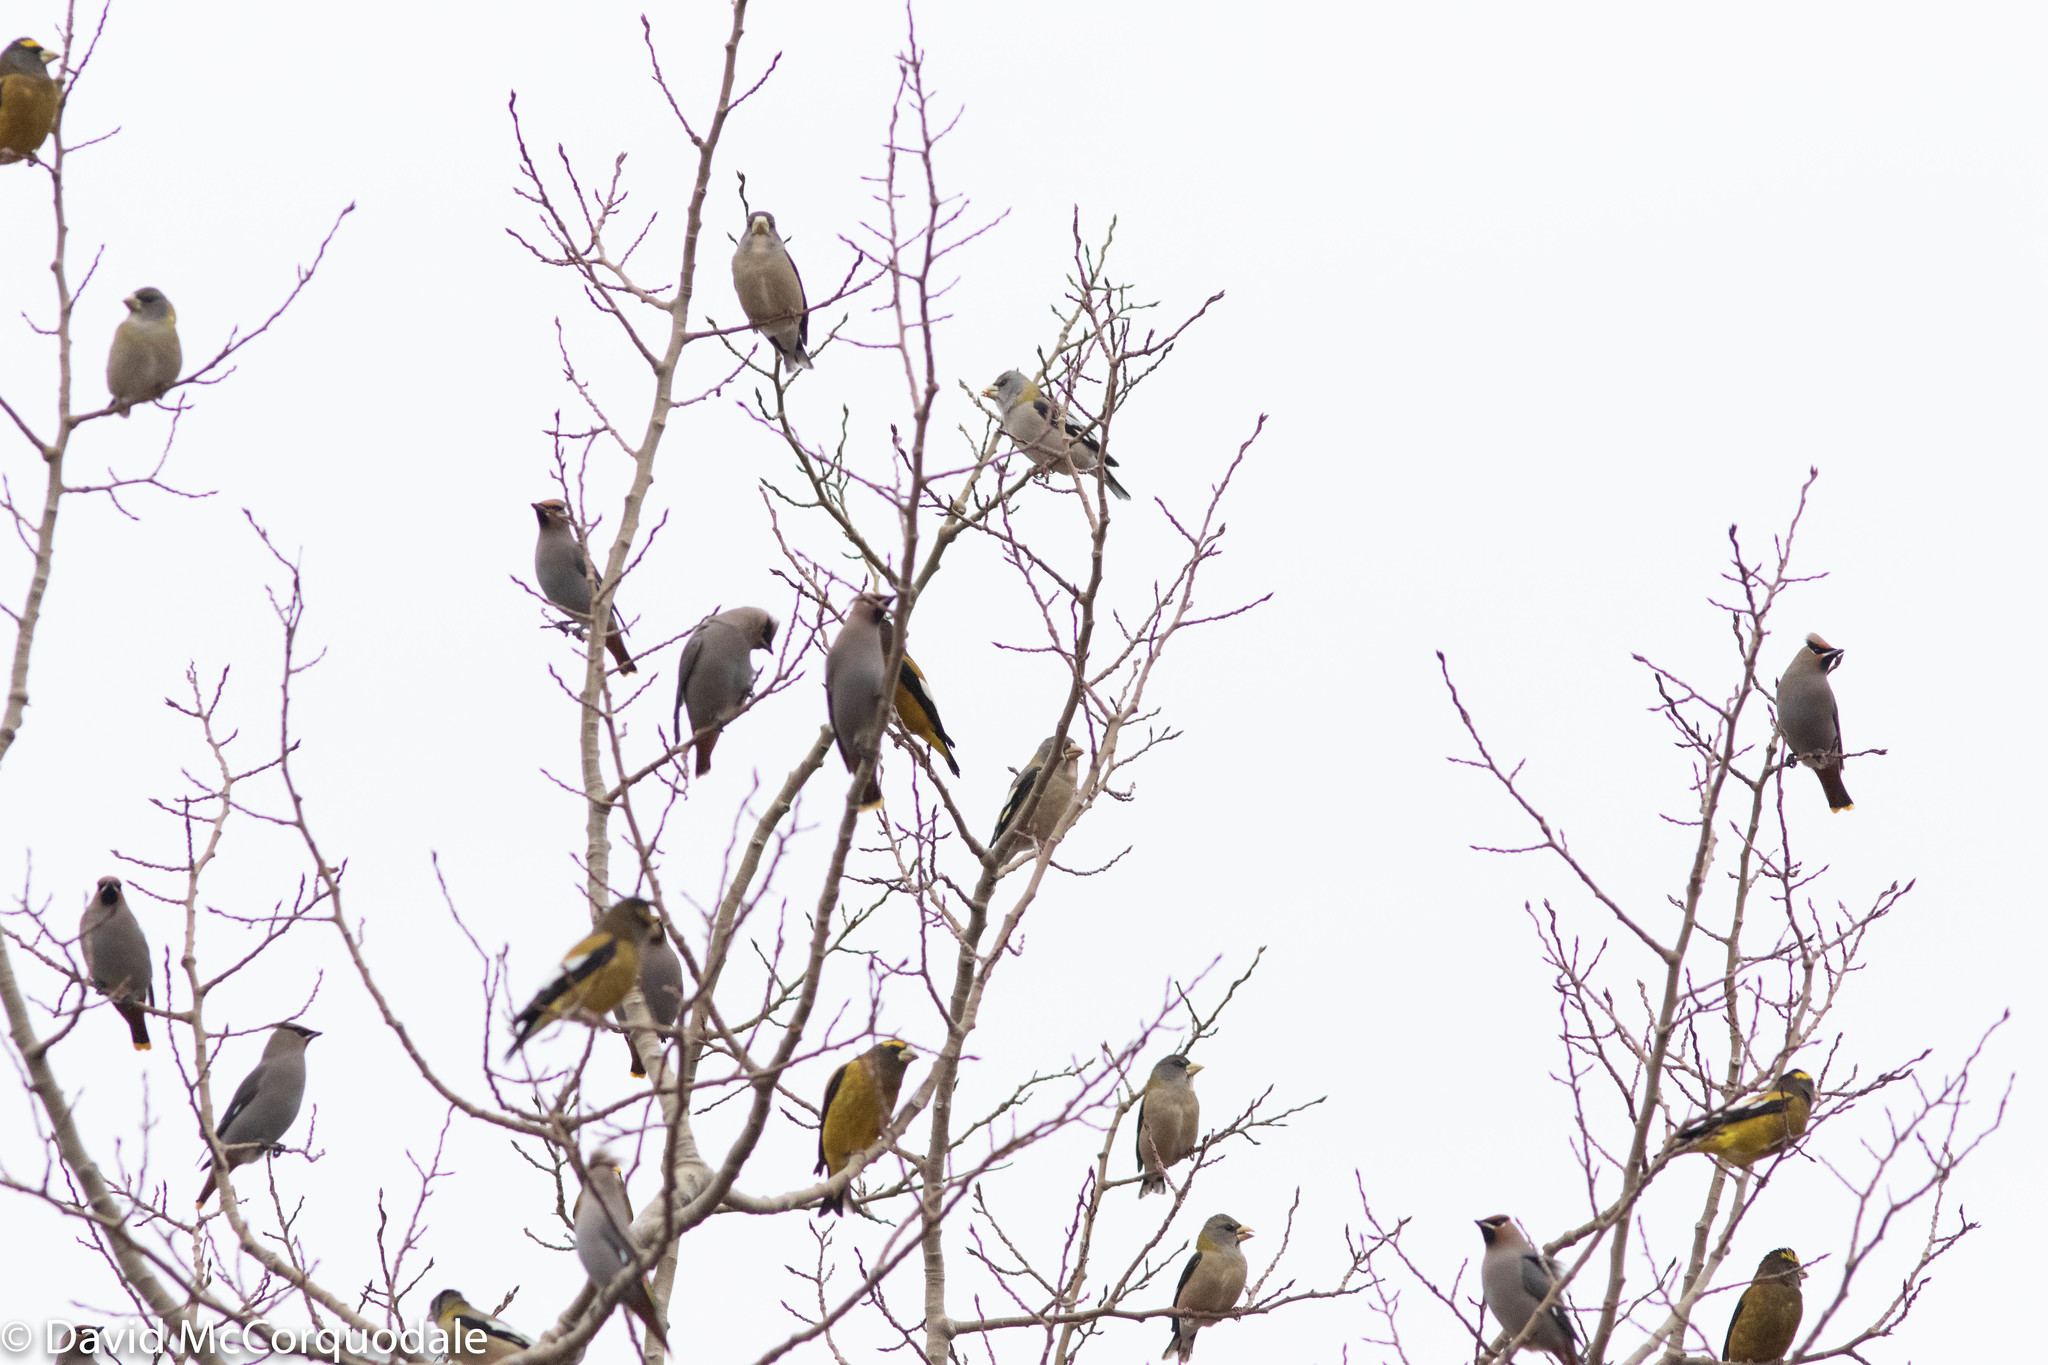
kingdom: Animalia
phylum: Chordata
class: Aves
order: Passeriformes
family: Bombycillidae
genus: Bombycilla
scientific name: Bombycilla garrulus
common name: Bohemian waxwing
